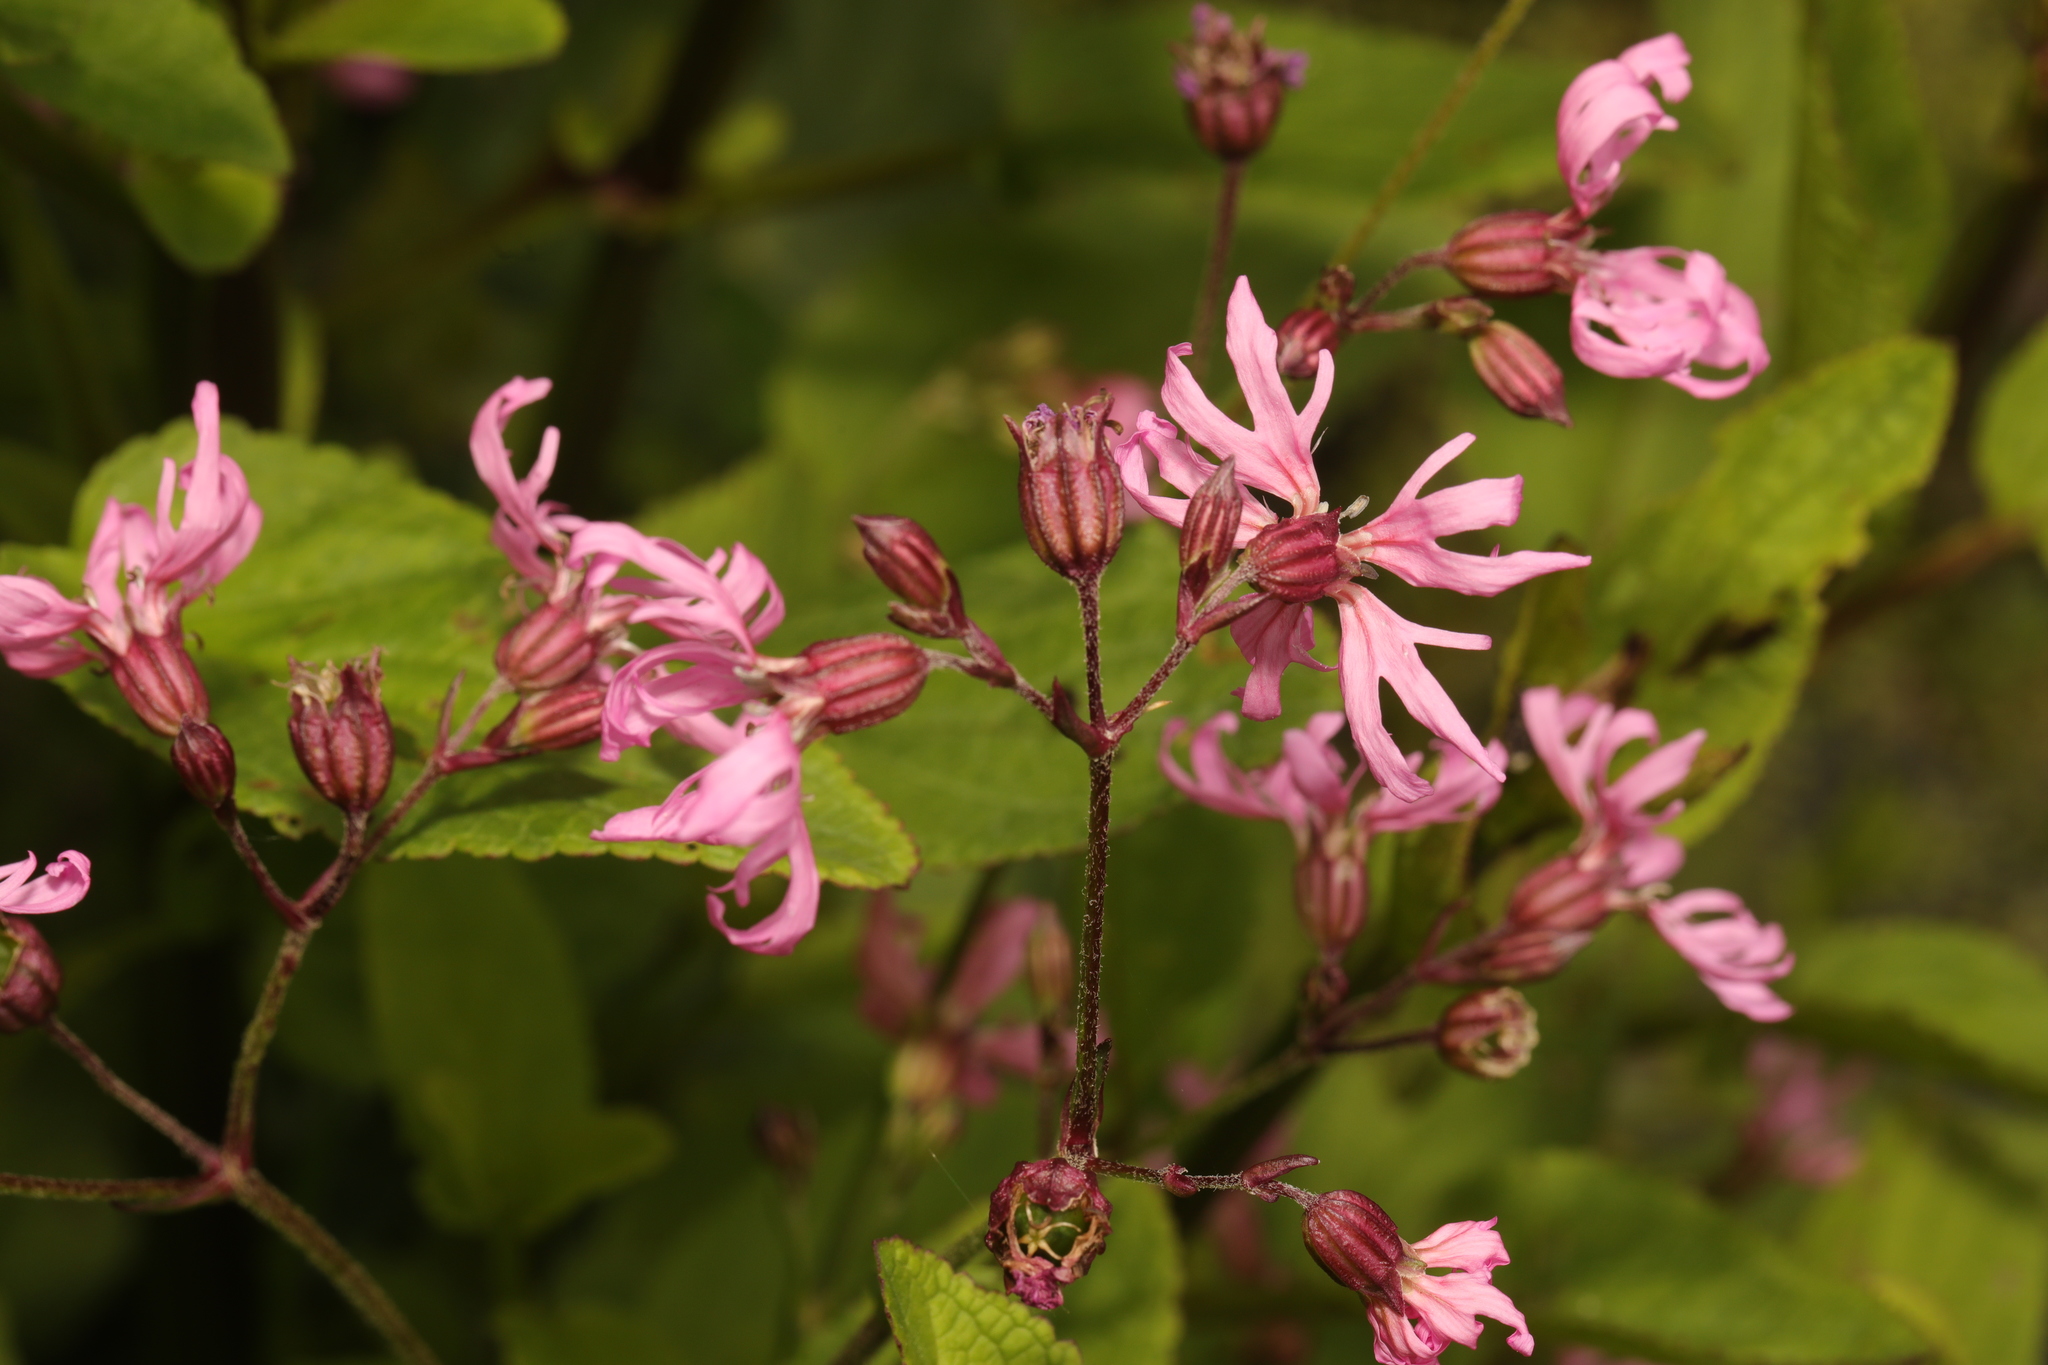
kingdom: Plantae
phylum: Tracheophyta
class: Magnoliopsida
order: Caryophyllales
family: Caryophyllaceae
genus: Silene
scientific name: Silene flos-cuculi
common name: Ragged-robin
